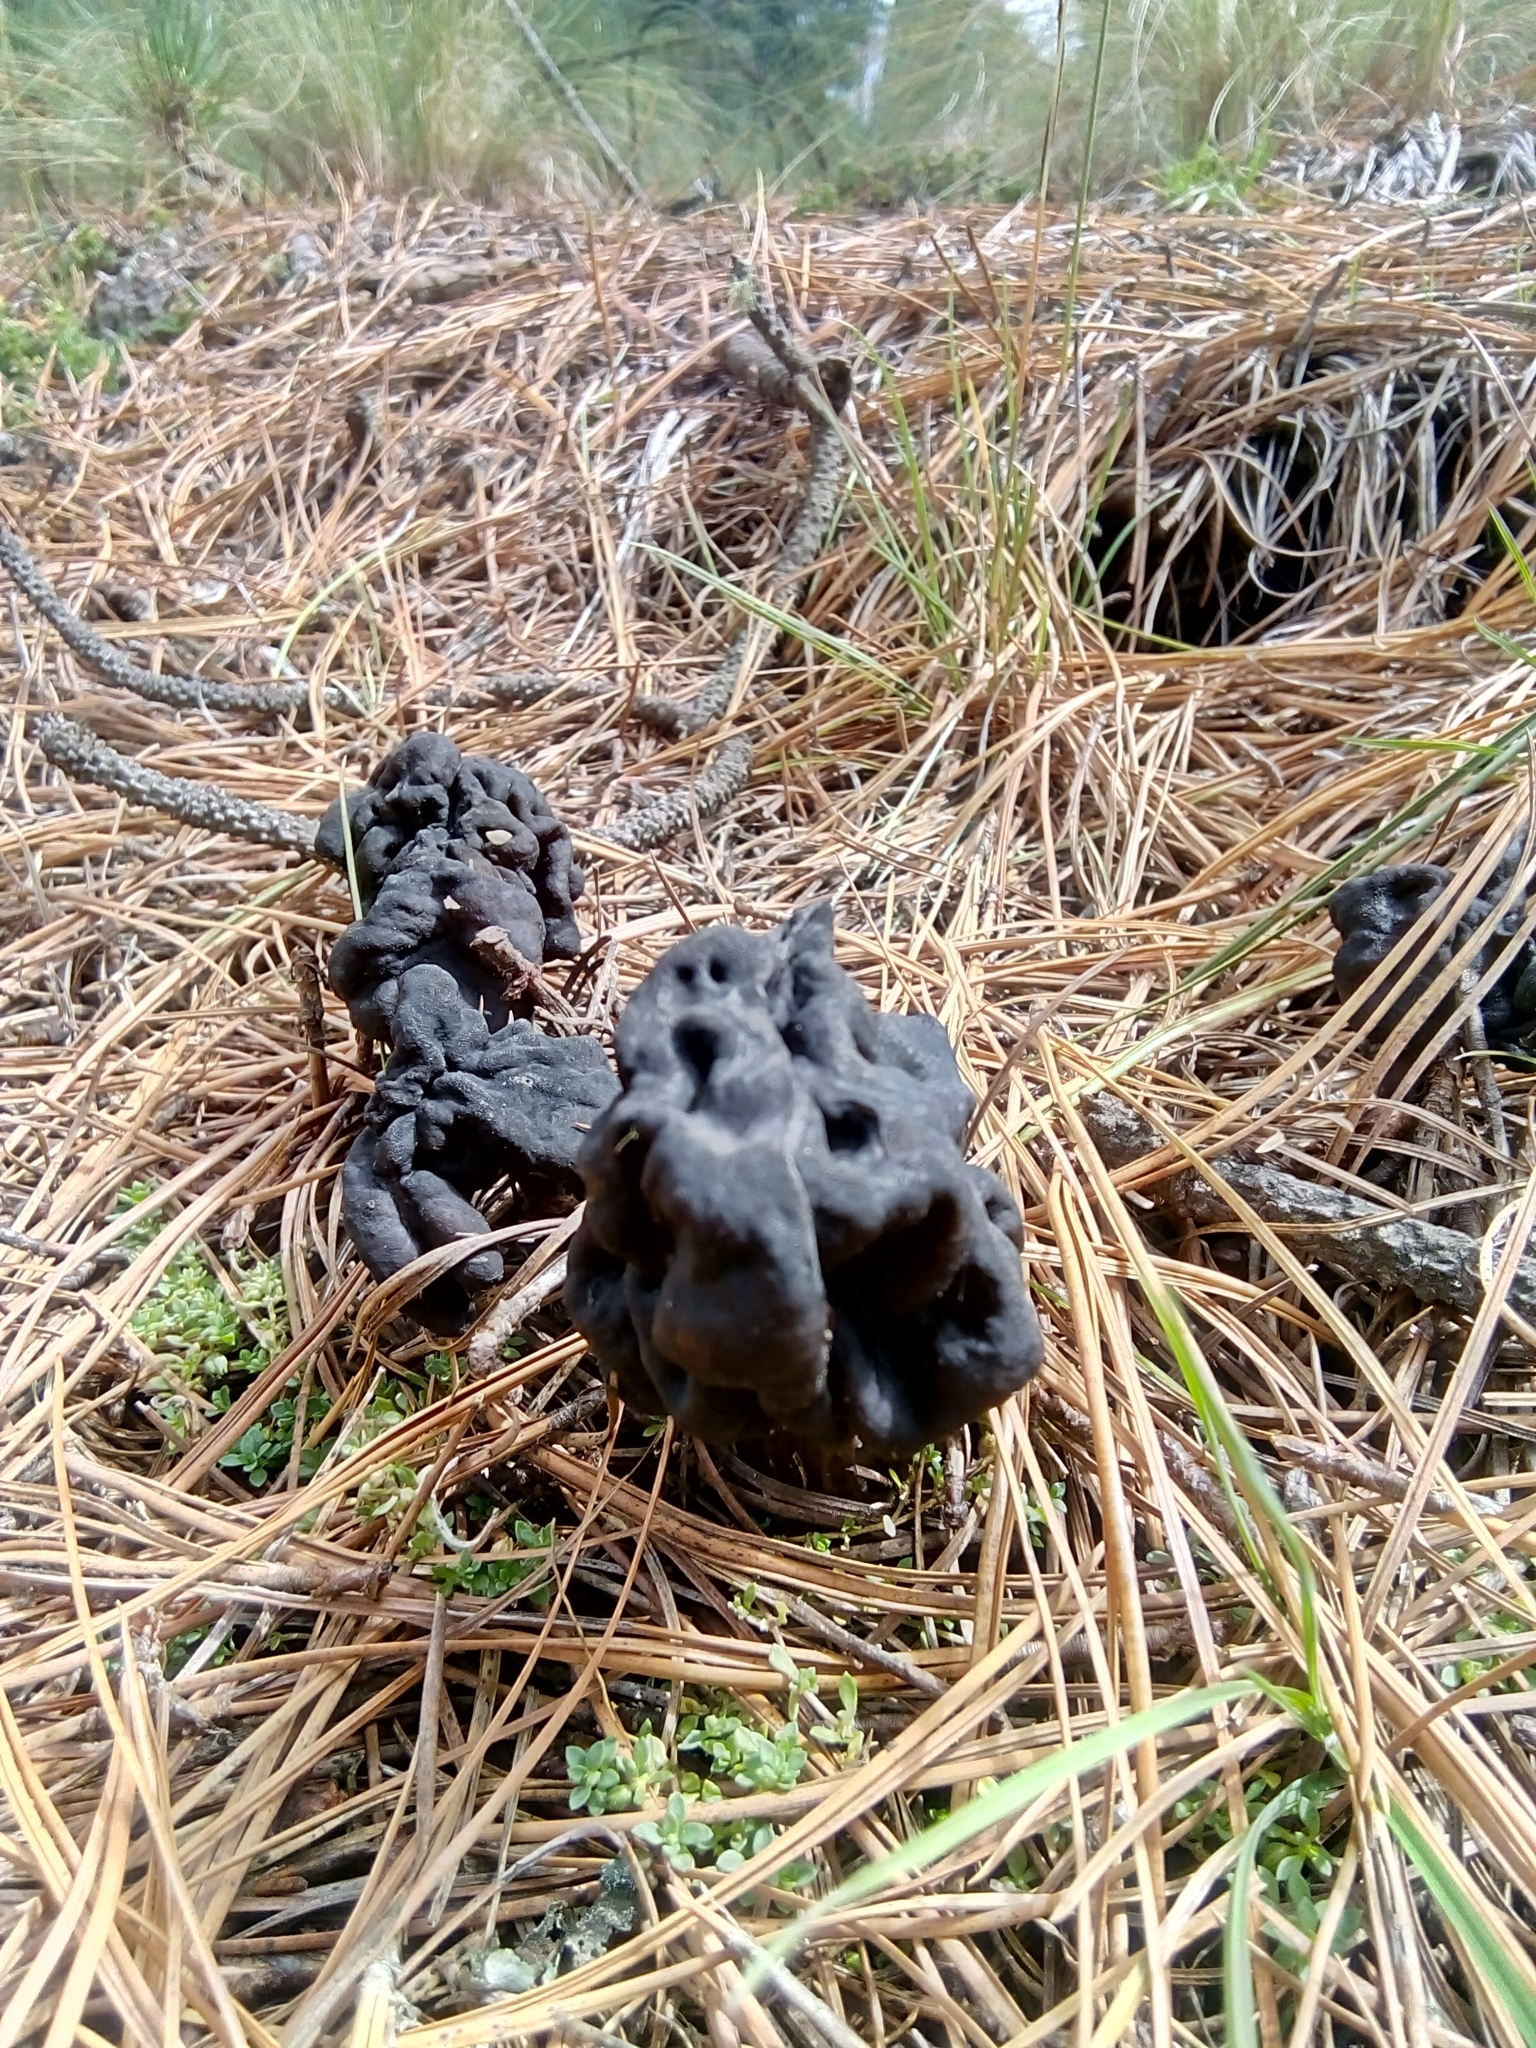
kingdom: Fungi
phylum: Ascomycota
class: Pezizomycetes
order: Pezizales
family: Helvellaceae
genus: Helvella
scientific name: Helvella vespertina
